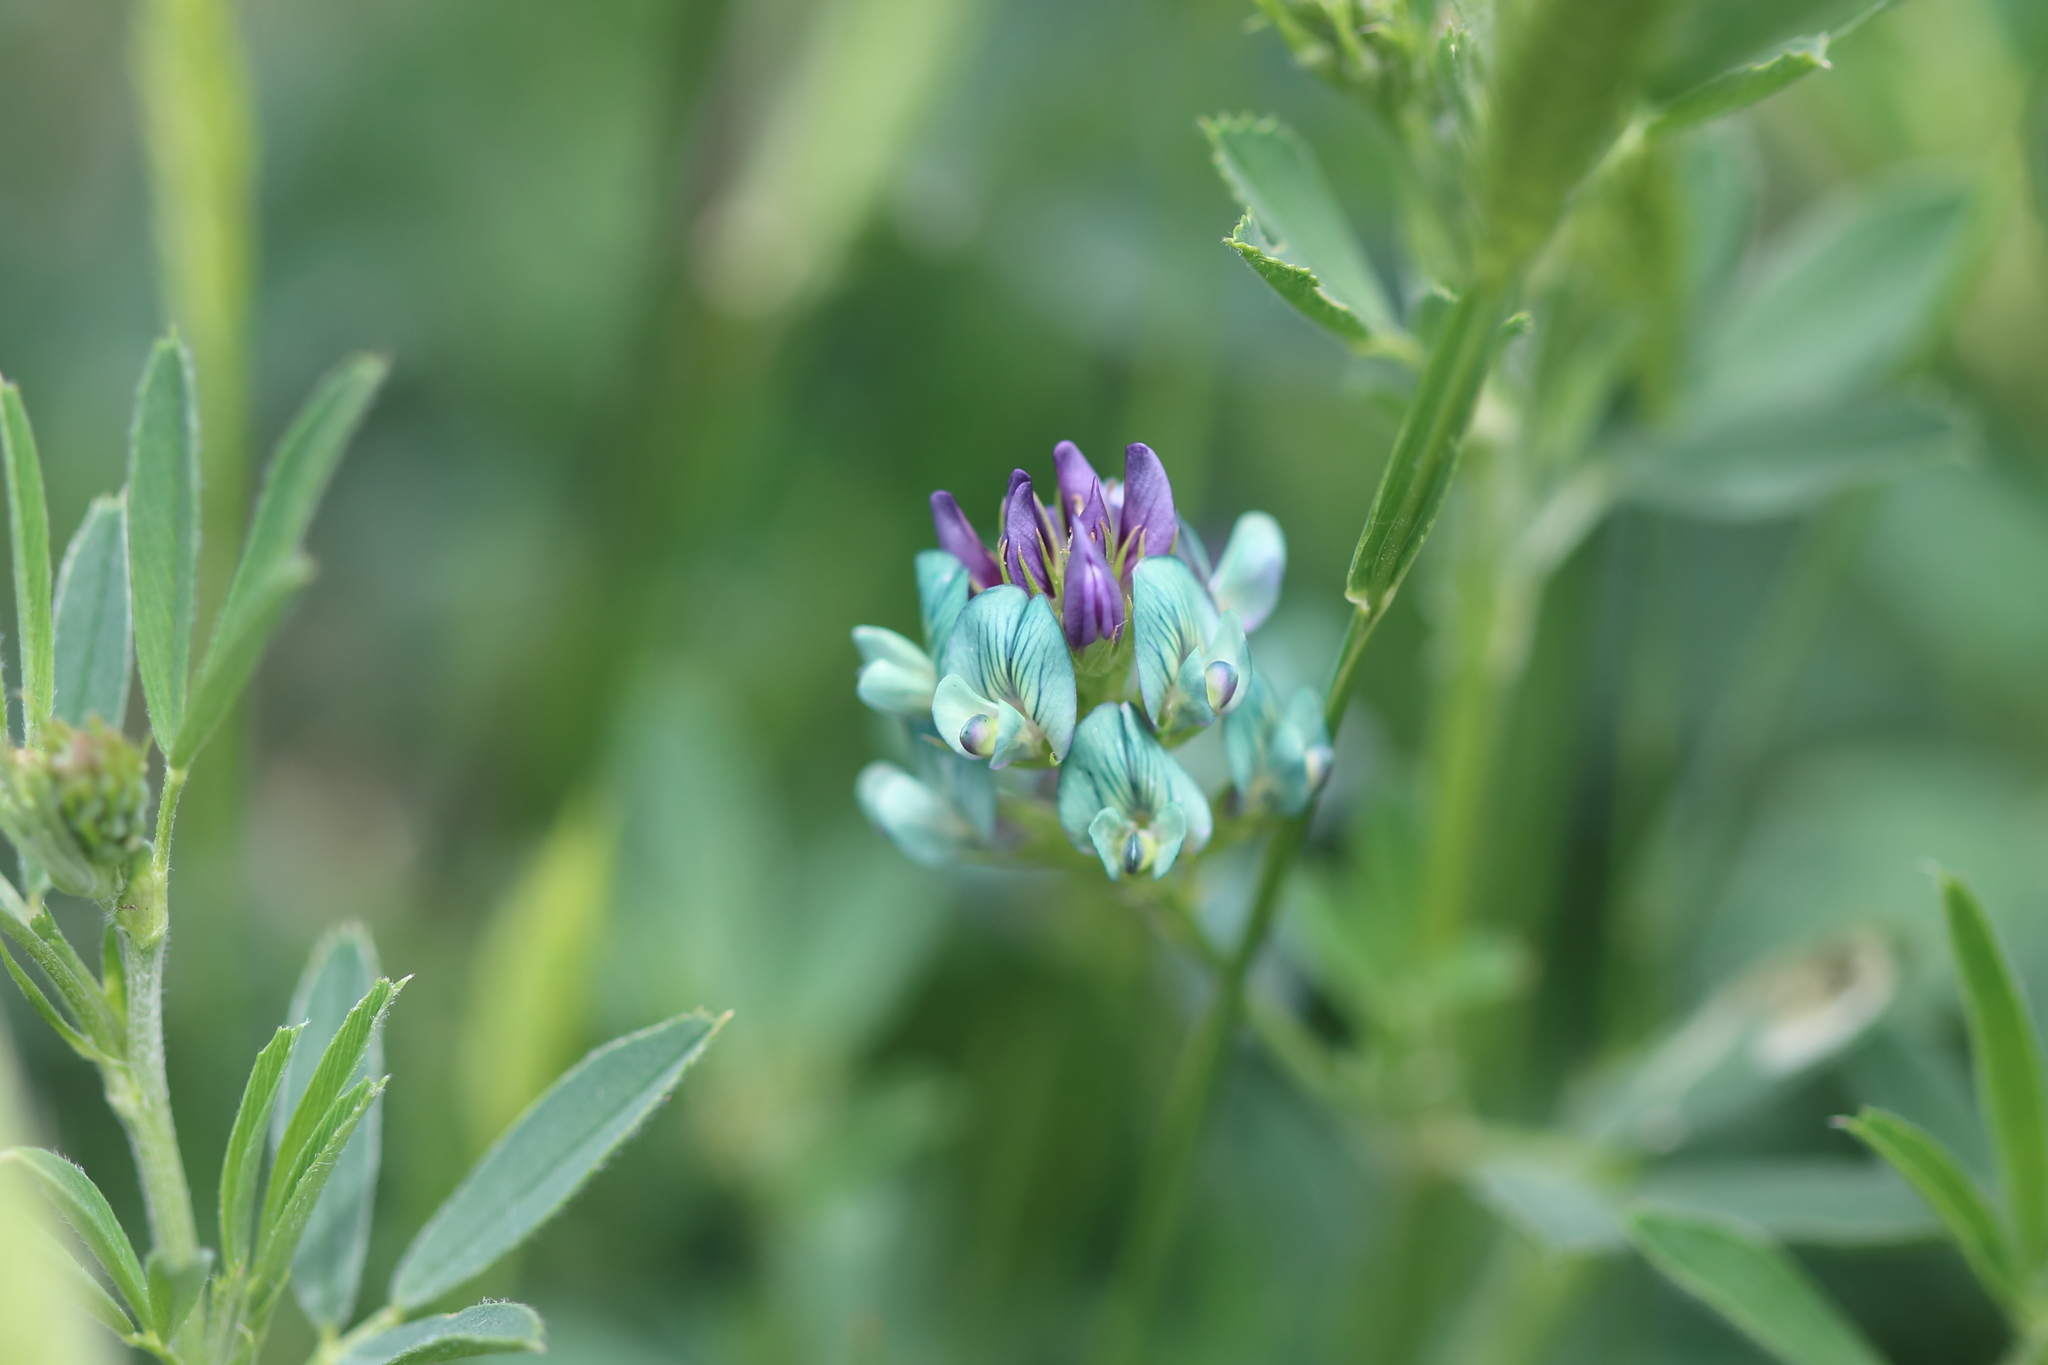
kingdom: Plantae
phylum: Tracheophyta
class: Magnoliopsida
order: Fabales
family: Fabaceae
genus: Medicago
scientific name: Medicago sativa
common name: Alfalfa
